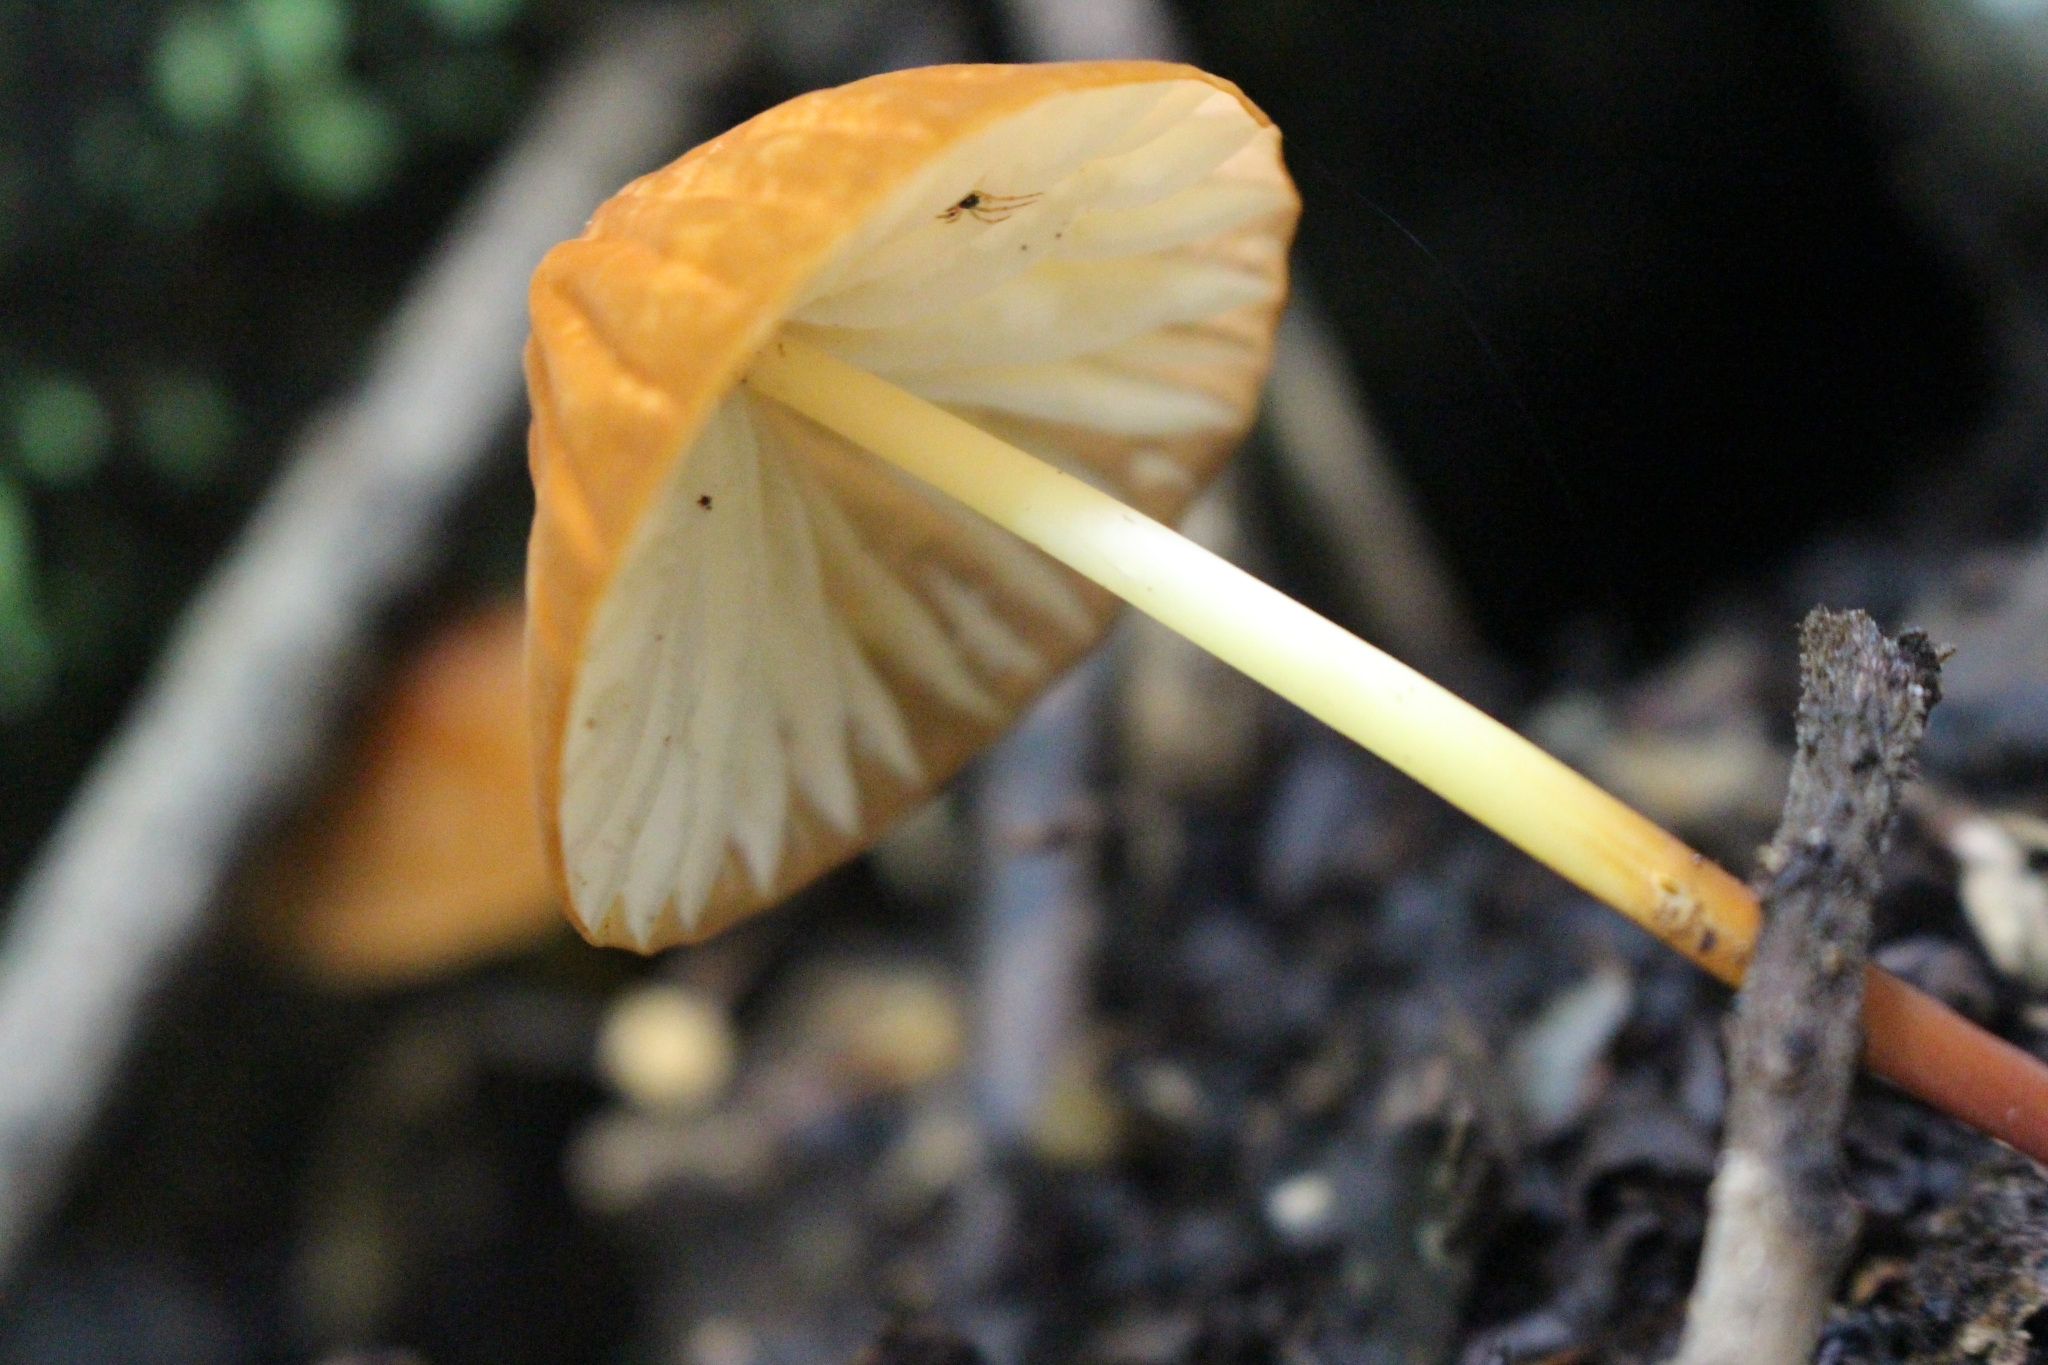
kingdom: Fungi
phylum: Basidiomycota
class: Agaricomycetes
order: Agaricales
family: Marasmiaceae
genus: Marasmius
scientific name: Marasmius berteroi
